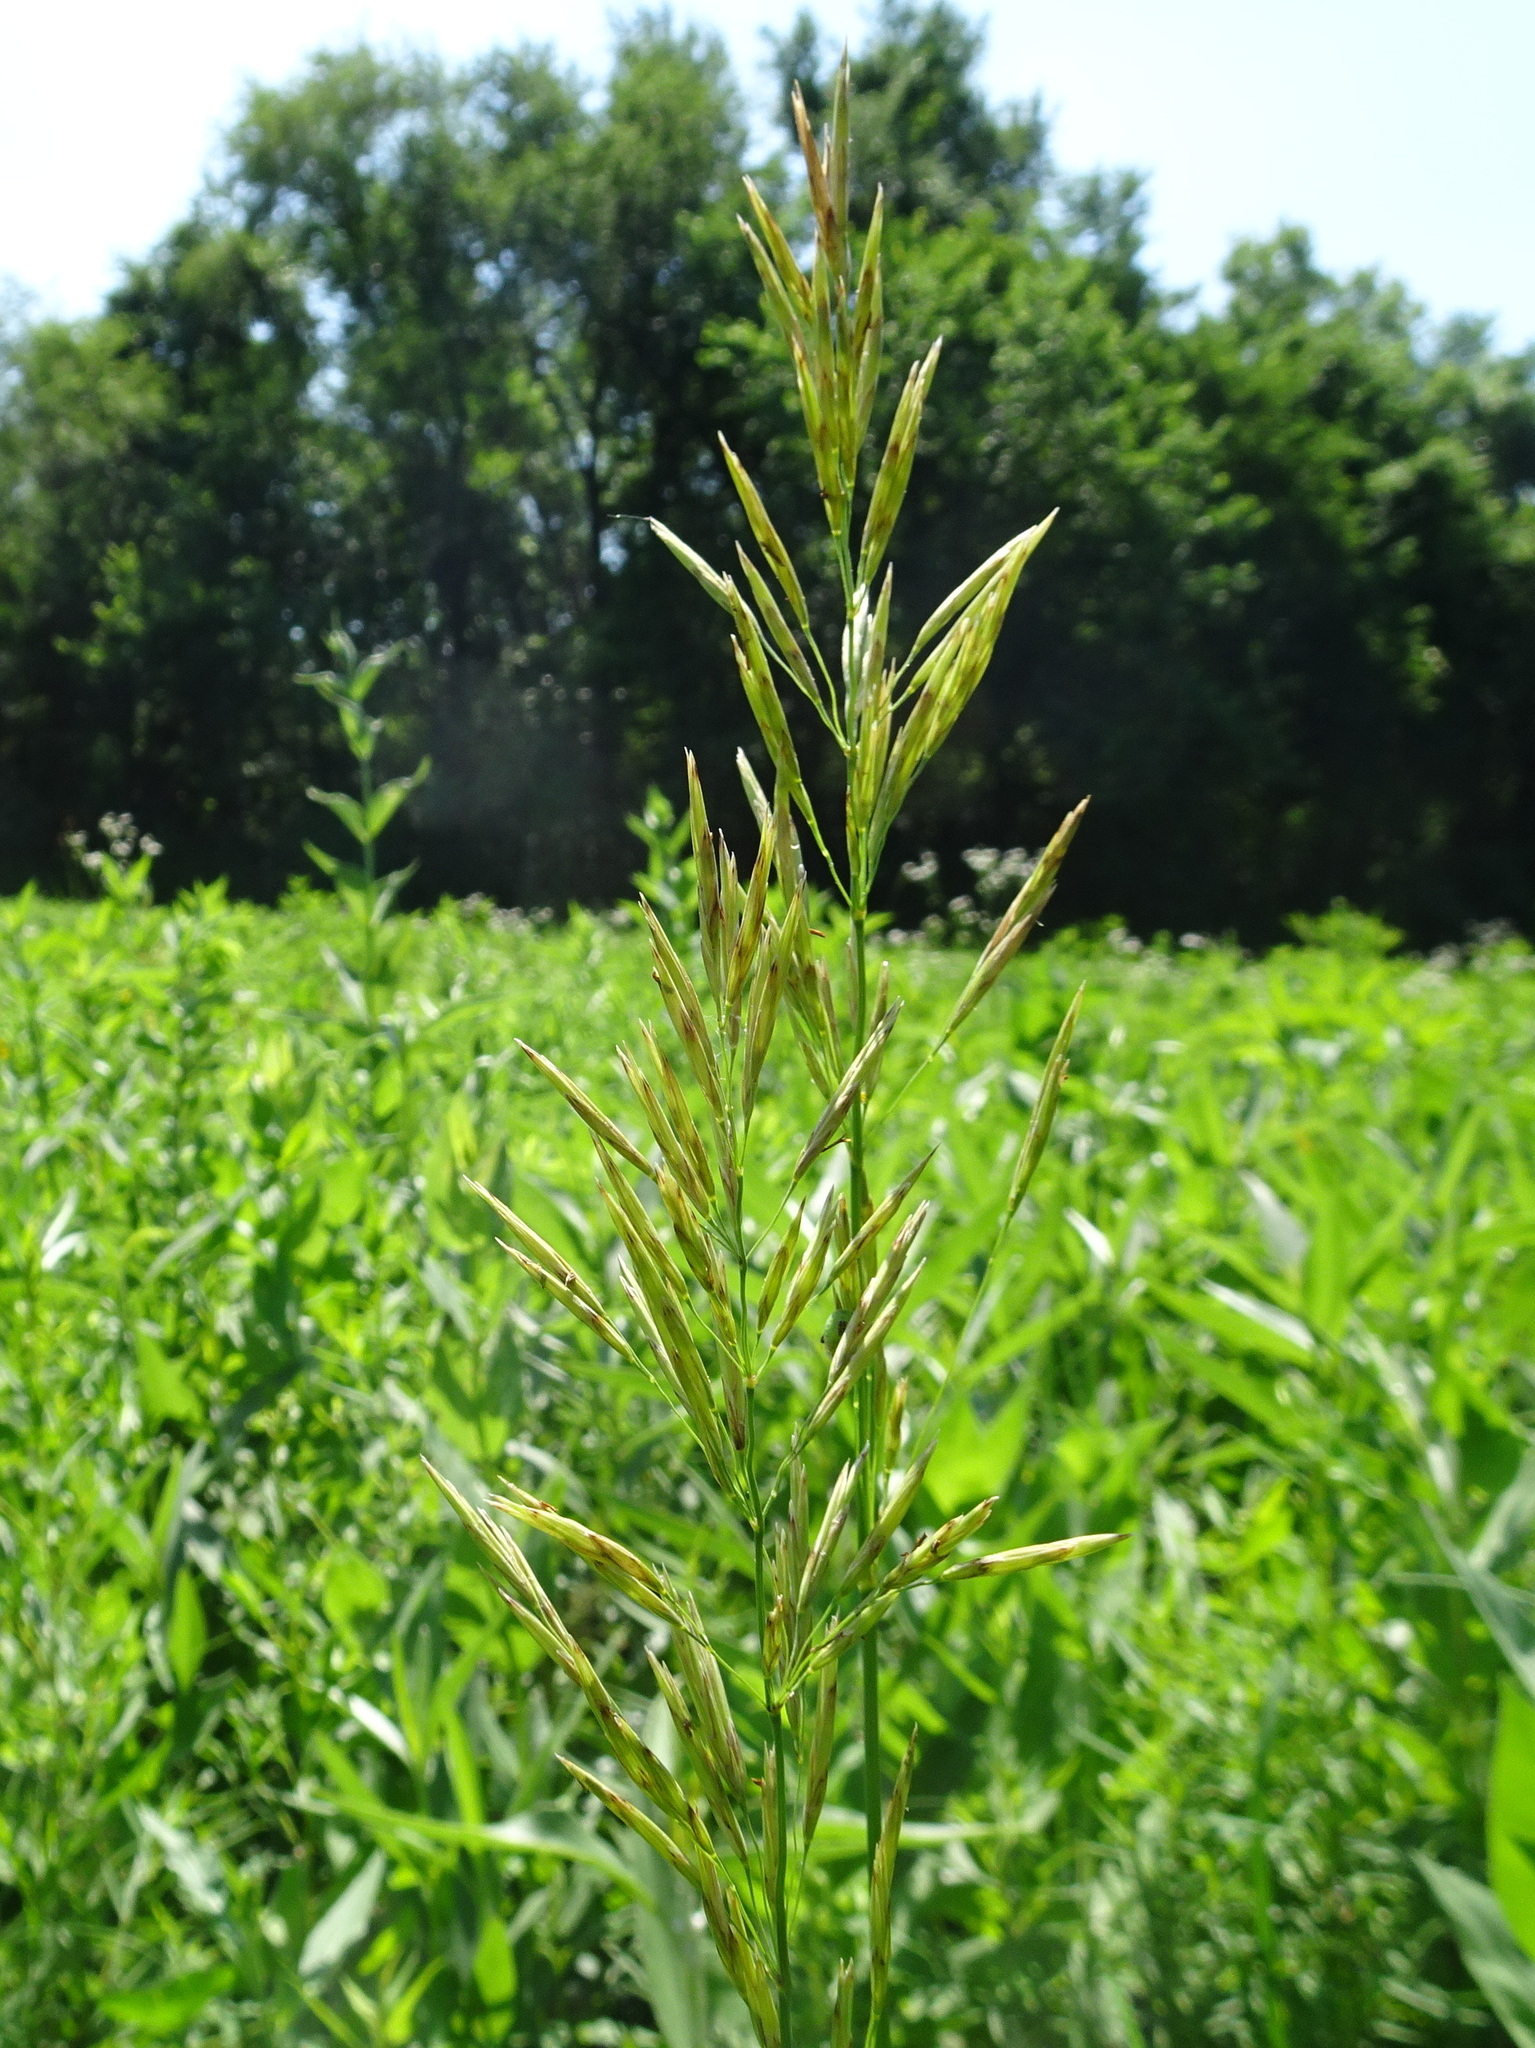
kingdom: Plantae
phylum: Tracheophyta
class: Liliopsida
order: Poales
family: Poaceae
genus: Bromus
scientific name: Bromus inermis
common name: Smooth brome
